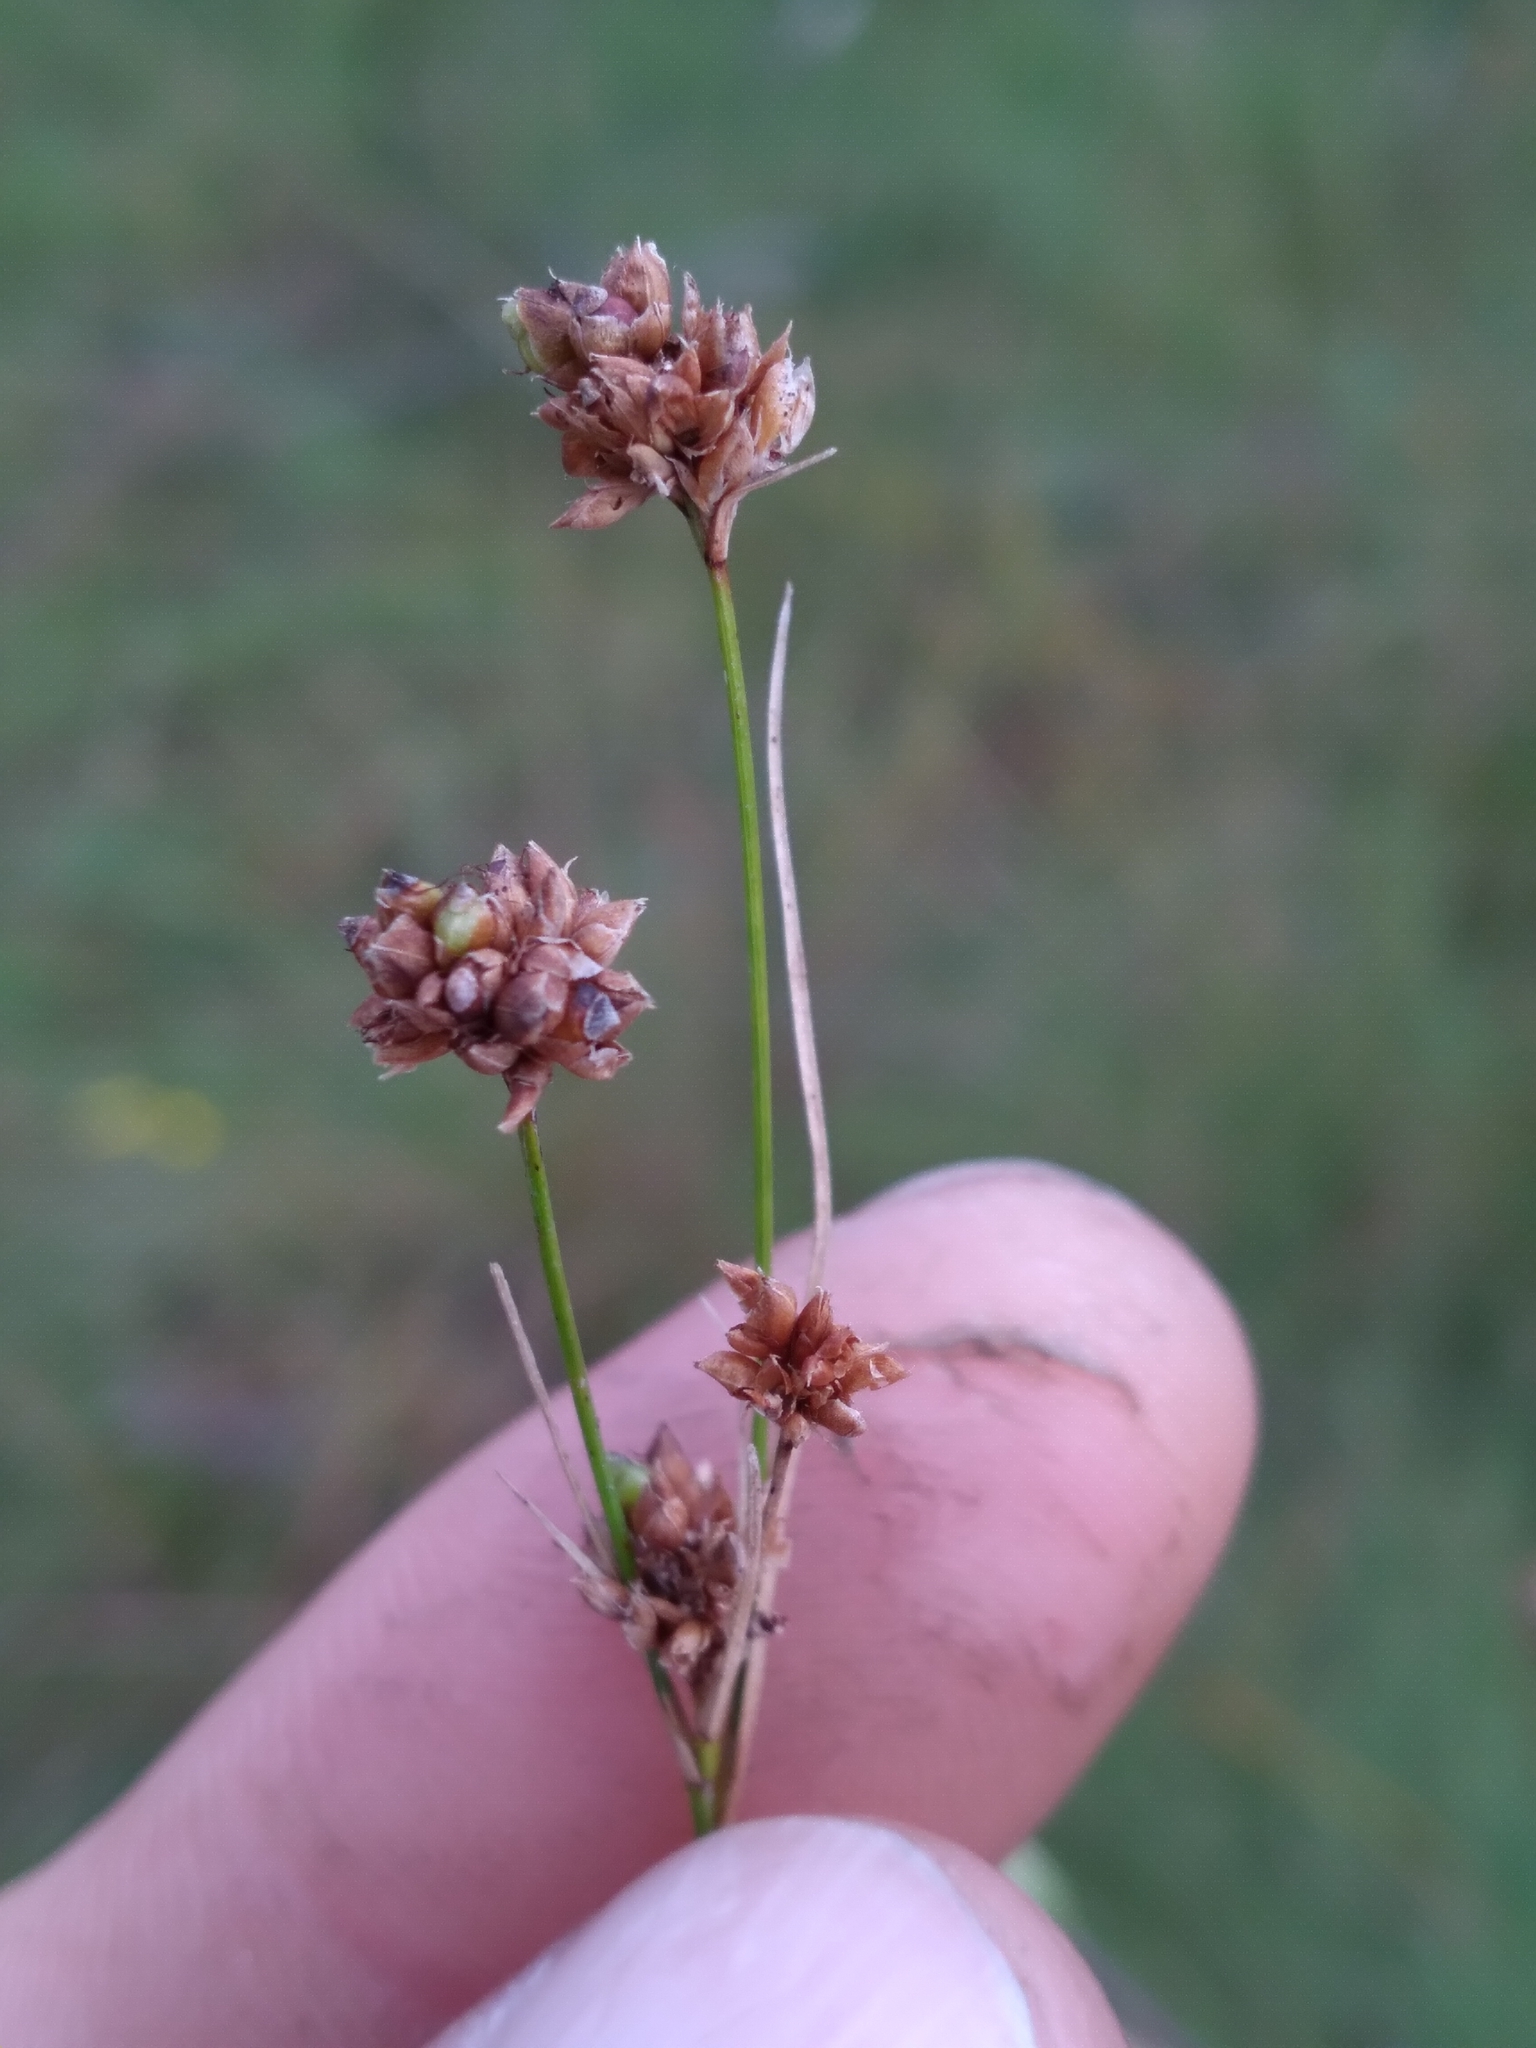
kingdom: Plantae
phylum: Tracheophyta
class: Liliopsida
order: Poales
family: Cyperaceae
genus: Rhynchospora
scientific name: Rhynchospora harveyi
